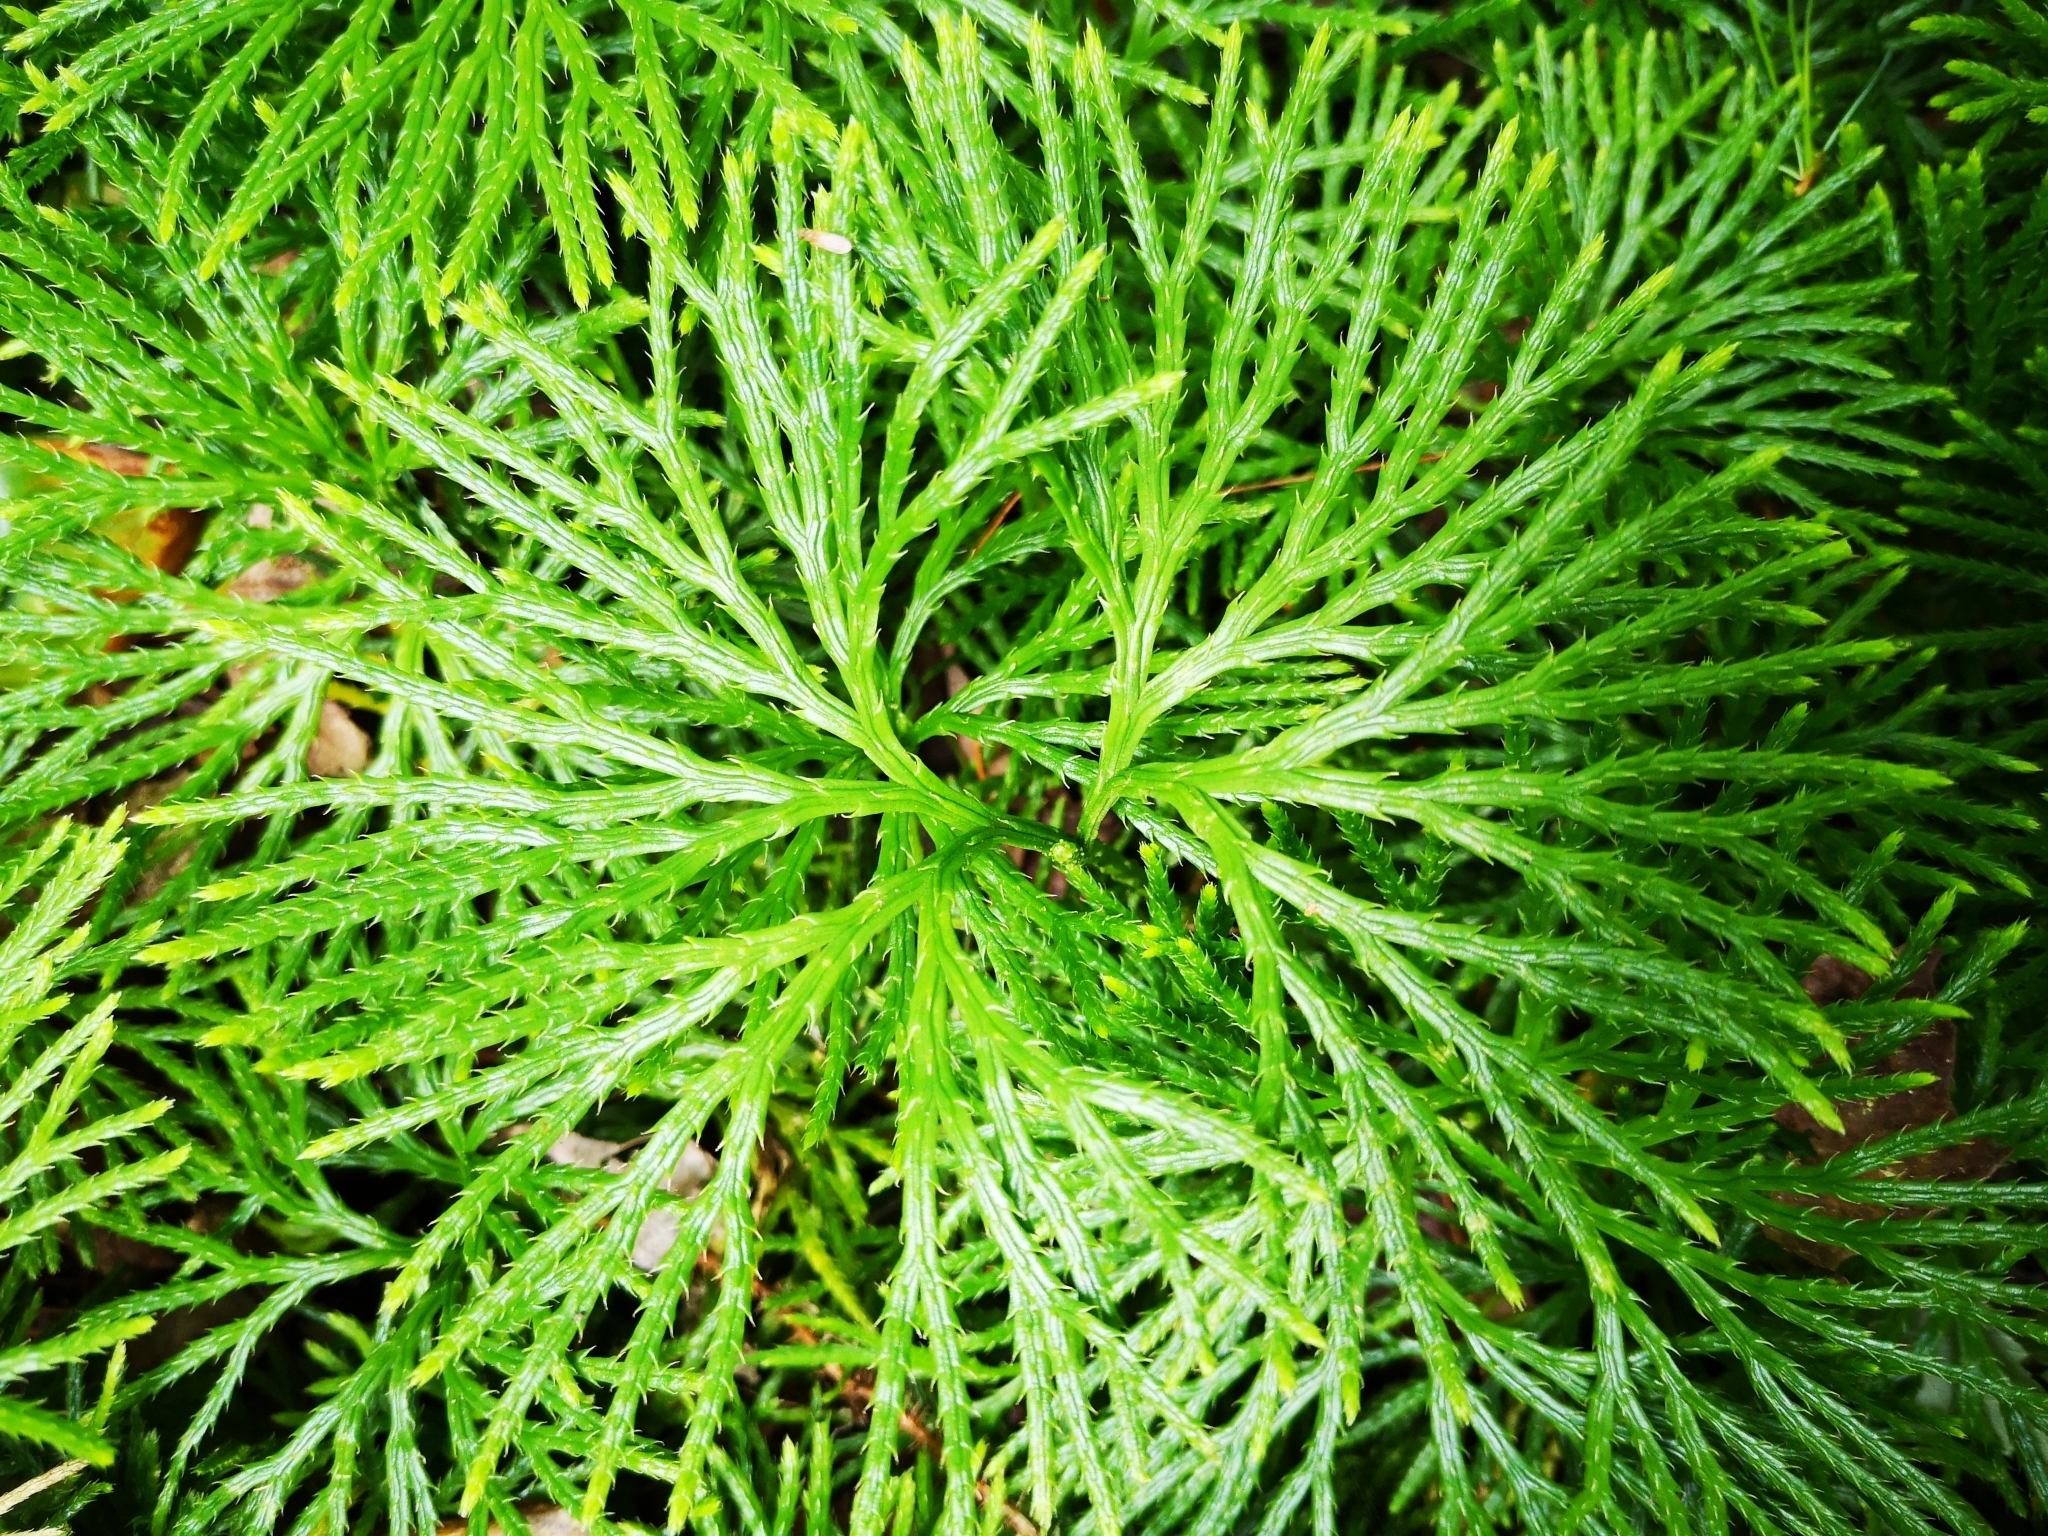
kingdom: Plantae
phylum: Tracheophyta
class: Lycopodiopsida
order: Lycopodiales
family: Lycopodiaceae
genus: Diphasiastrum
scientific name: Diphasiastrum digitatum
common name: Southern running-pine
